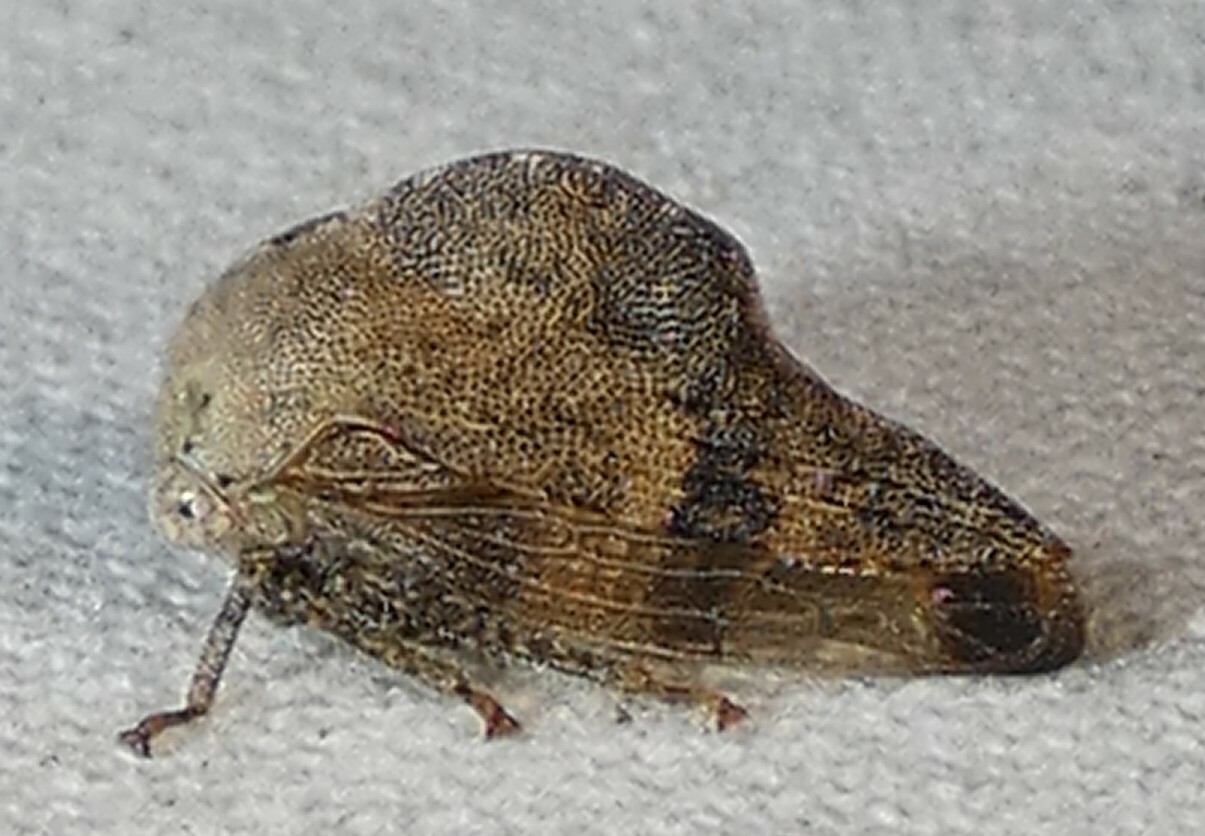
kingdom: Animalia
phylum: Arthropoda
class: Insecta
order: Hemiptera
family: Membracidae
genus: Telamona
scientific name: Telamona reclivata
